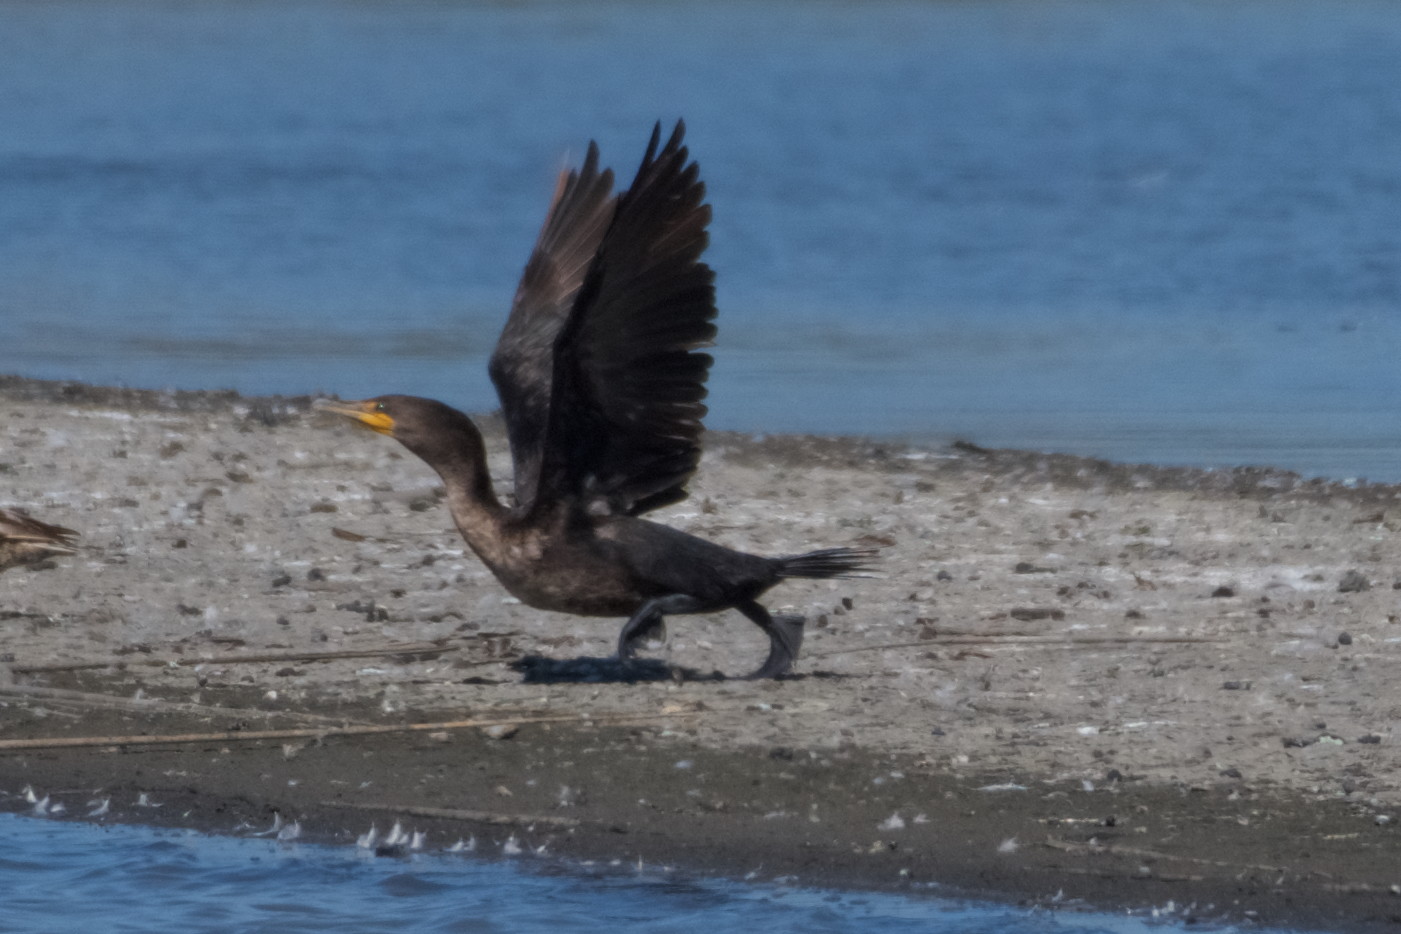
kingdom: Animalia
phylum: Chordata
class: Aves
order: Suliformes
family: Phalacrocoracidae
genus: Phalacrocorax
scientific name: Phalacrocorax auritus
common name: Double-crested cormorant
